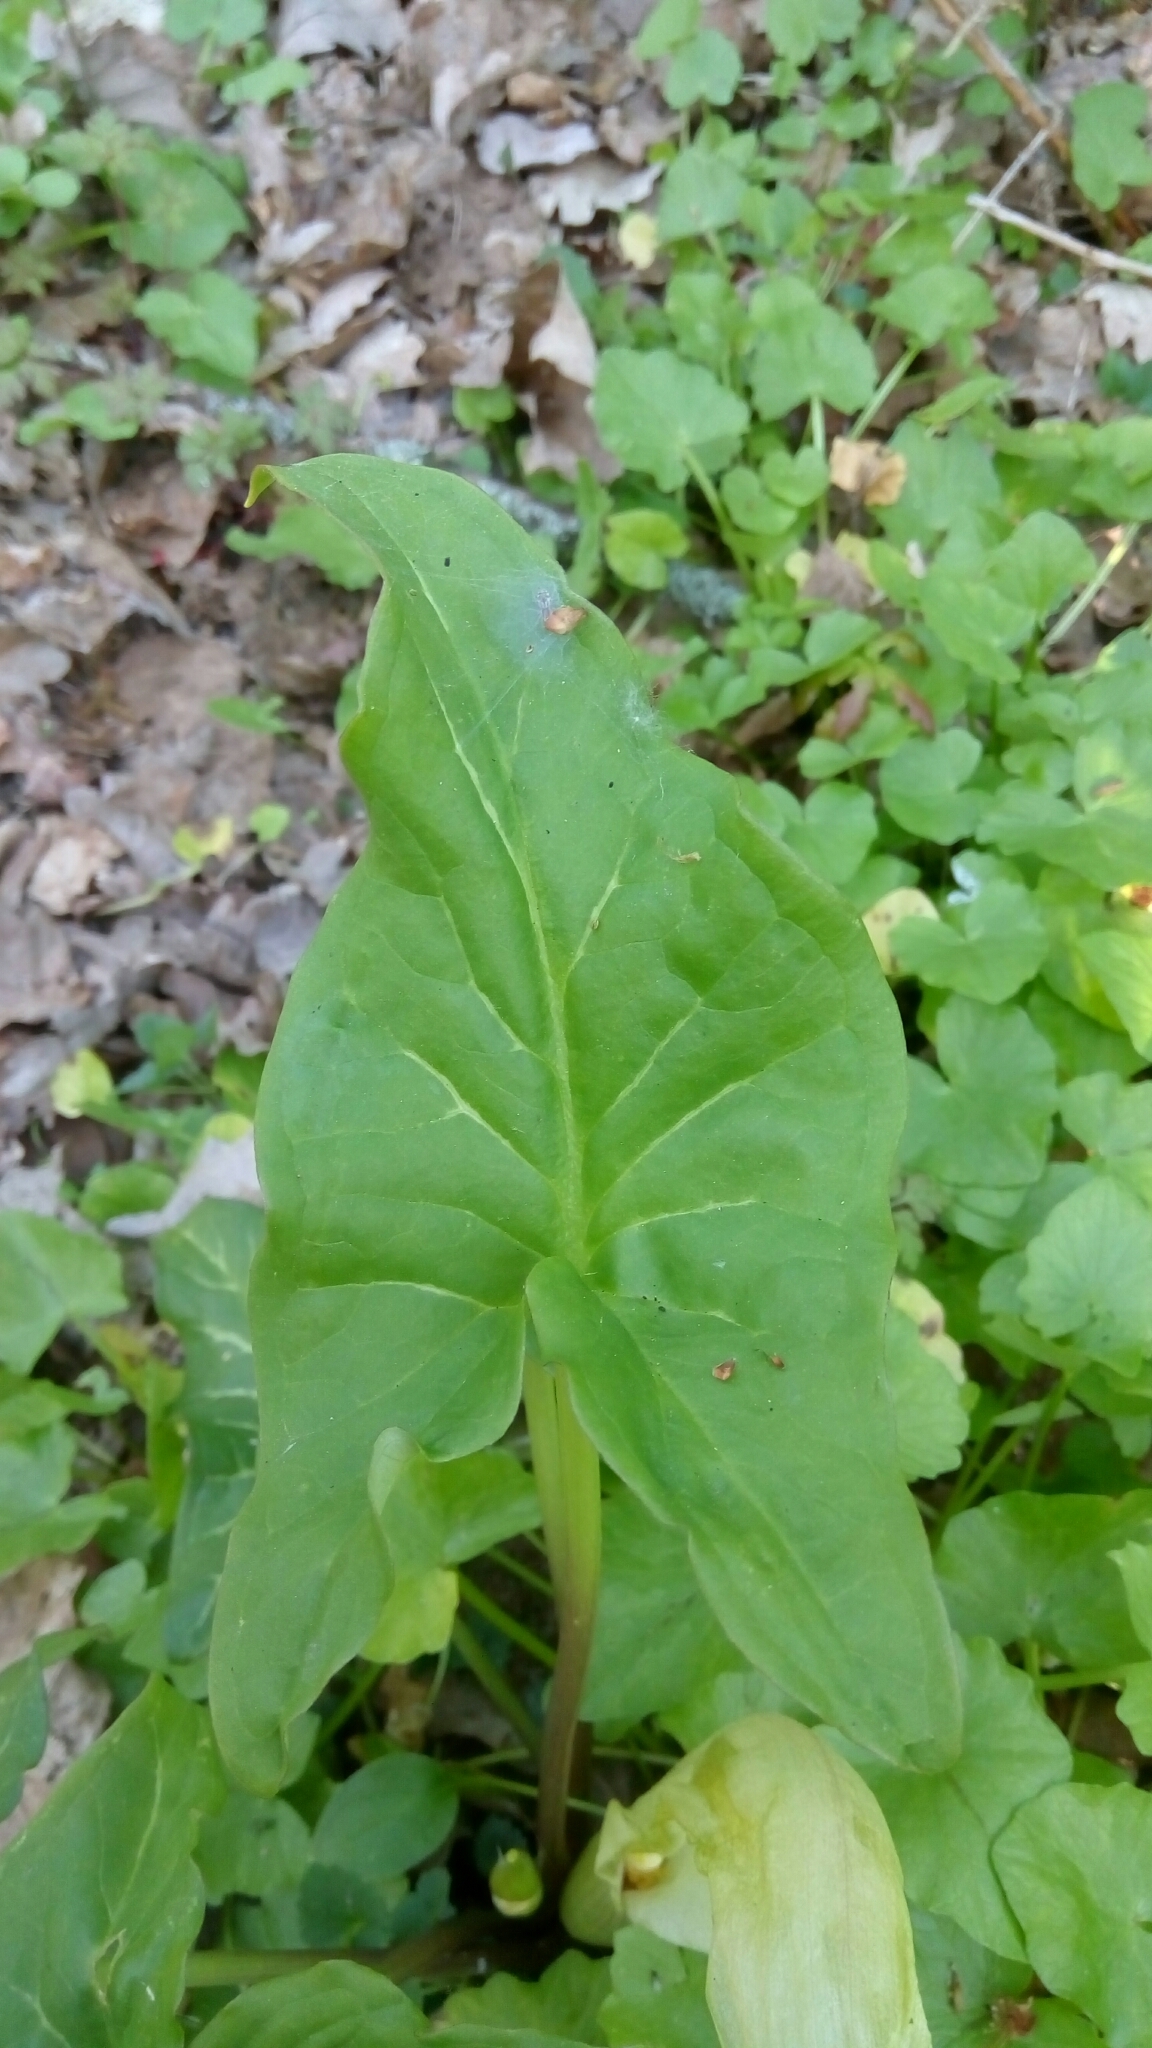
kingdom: Plantae
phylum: Tracheophyta
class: Liliopsida
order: Alismatales
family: Araceae
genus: Arum
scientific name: Arum italicum
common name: Italian lords-and-ladies
